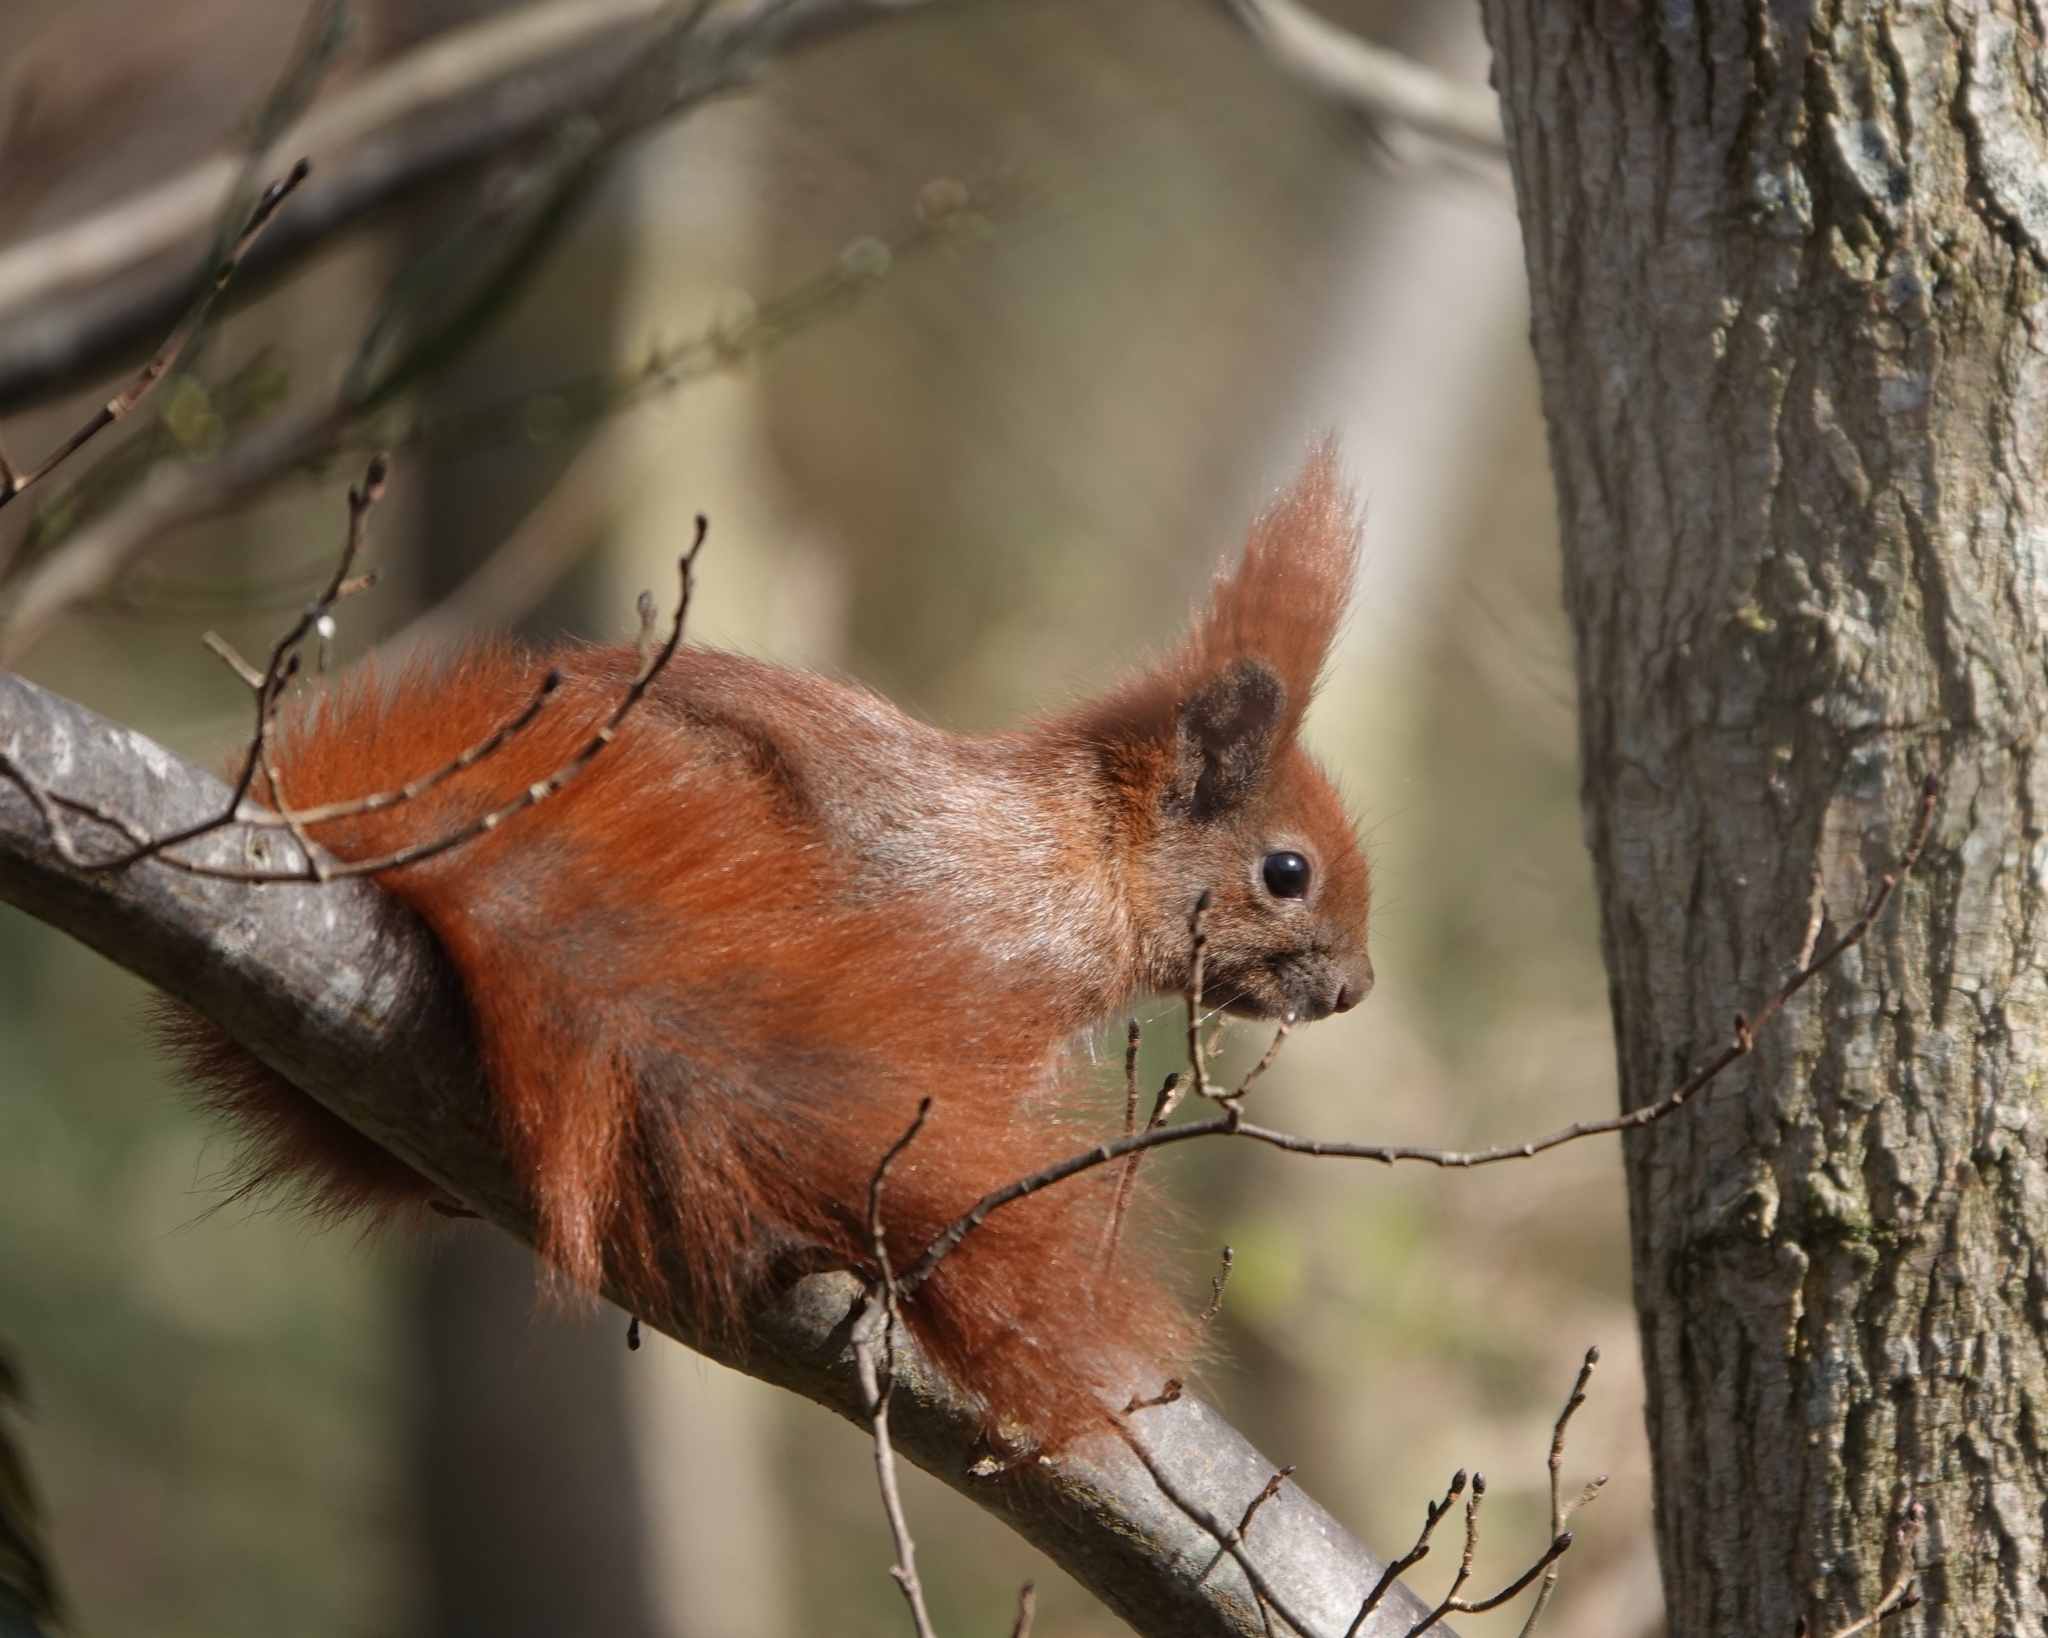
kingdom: Animalia
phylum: Chordata
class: Mammalia
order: Rodentia
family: Sciuridae
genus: Sciurus
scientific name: Sciurus vulgaris
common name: Eurasian red squirrel
